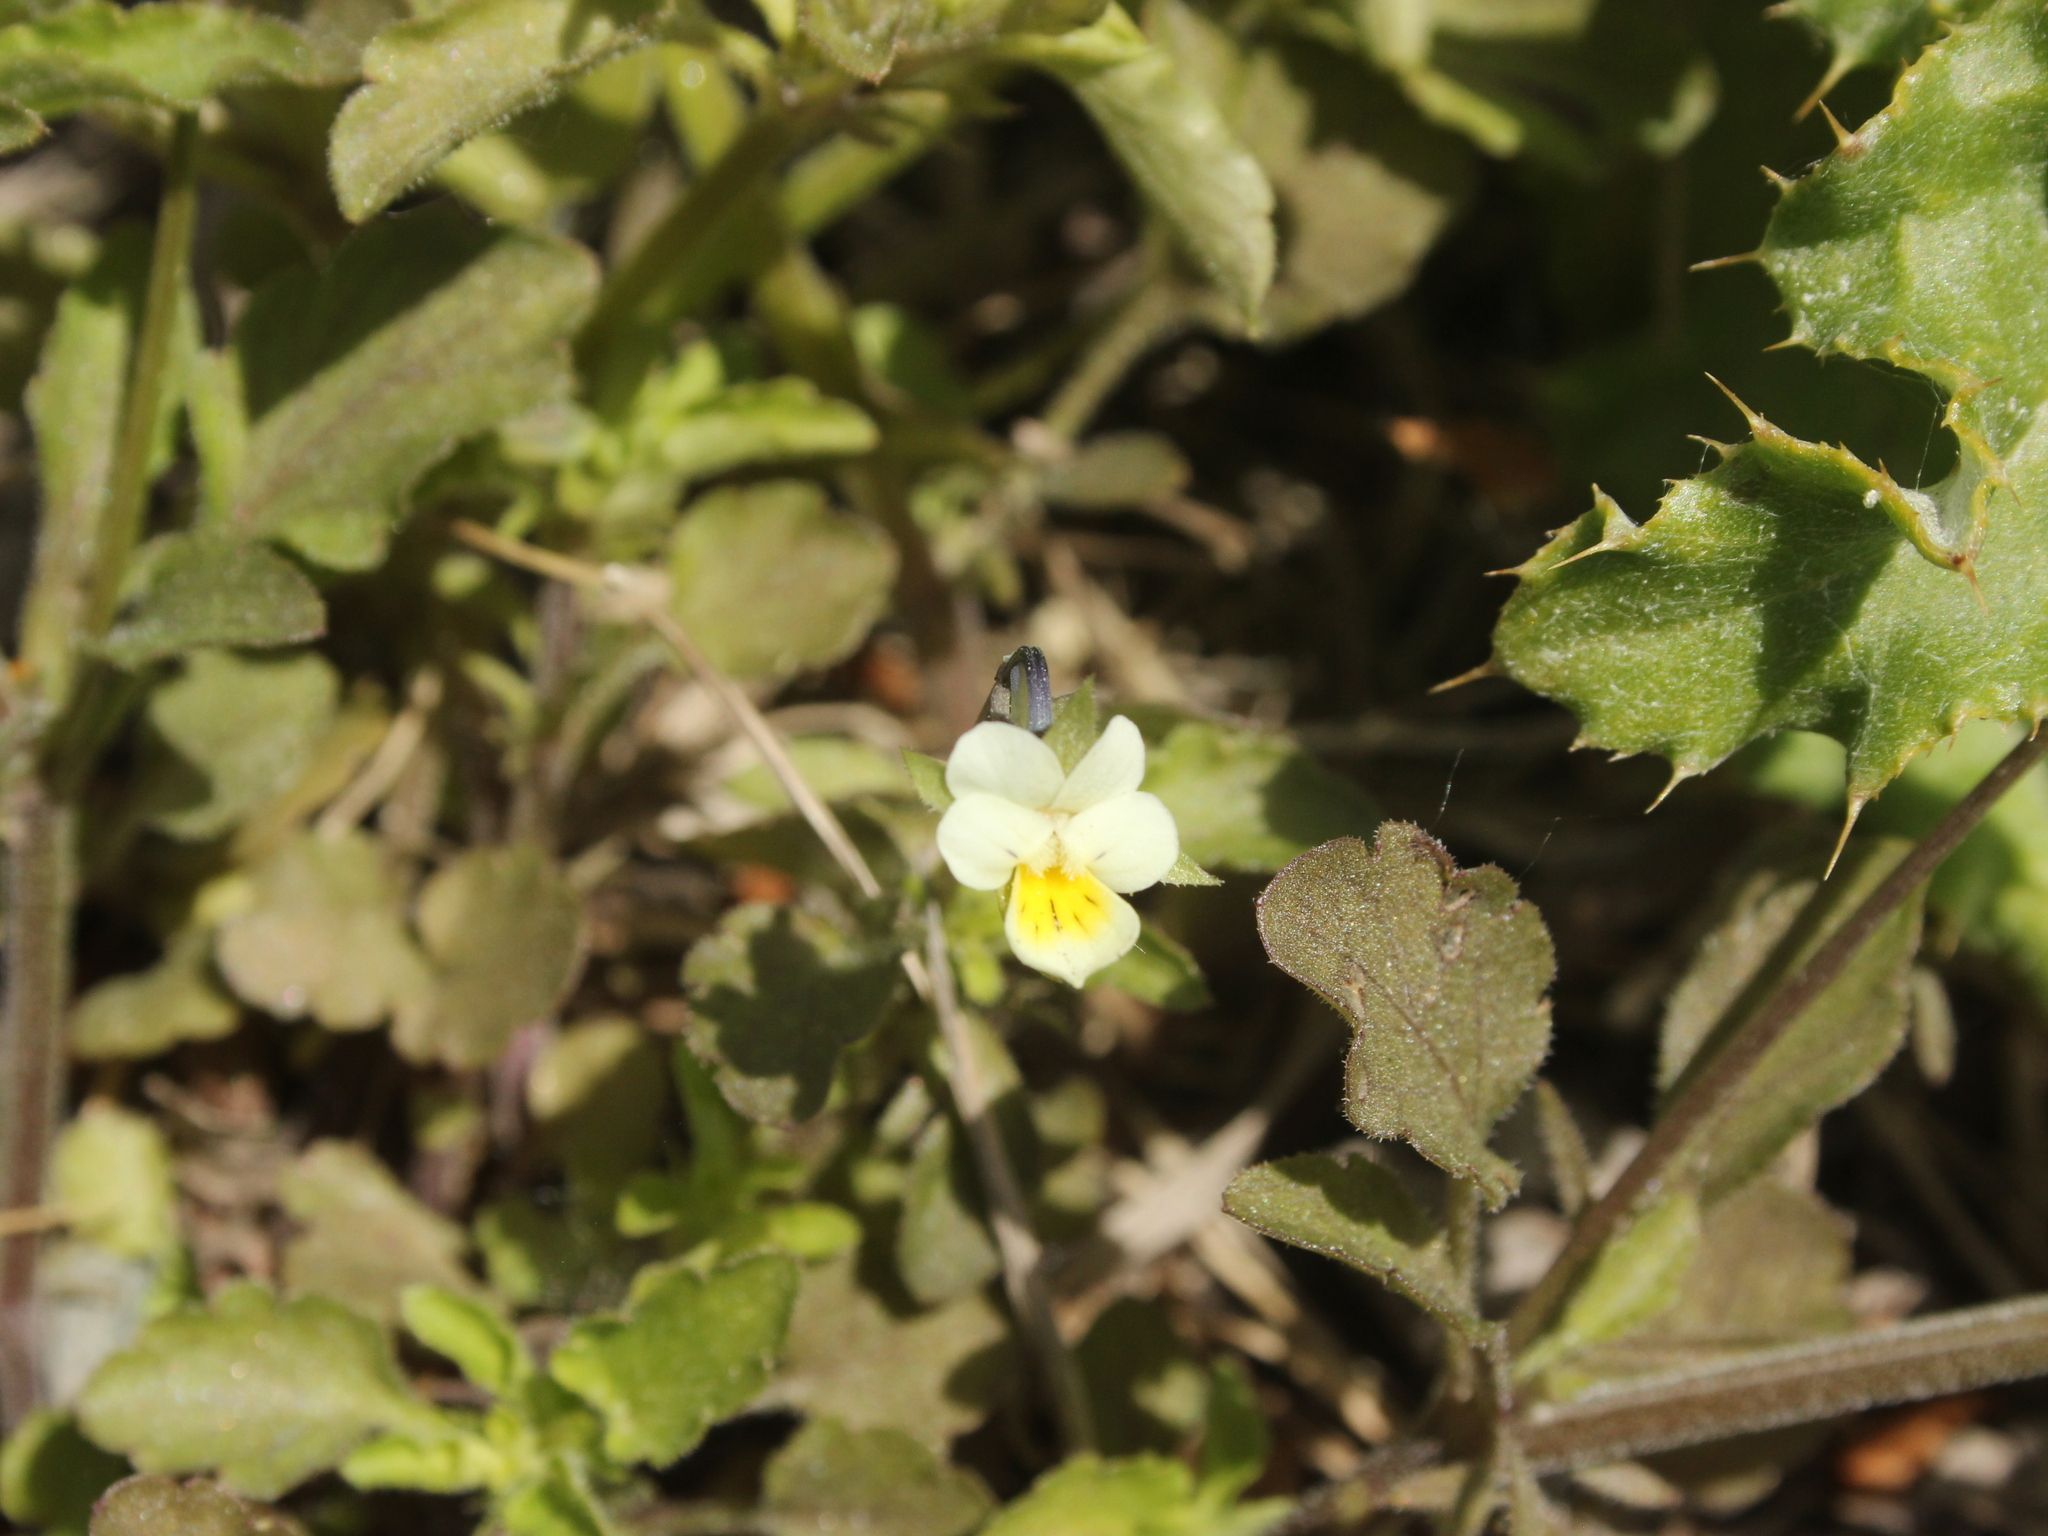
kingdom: Plantae
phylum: Tracheophyta
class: Magnoliopsida
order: Malpighiales
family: Violaceae
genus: Viola
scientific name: Viola arvensis
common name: Field pansy
